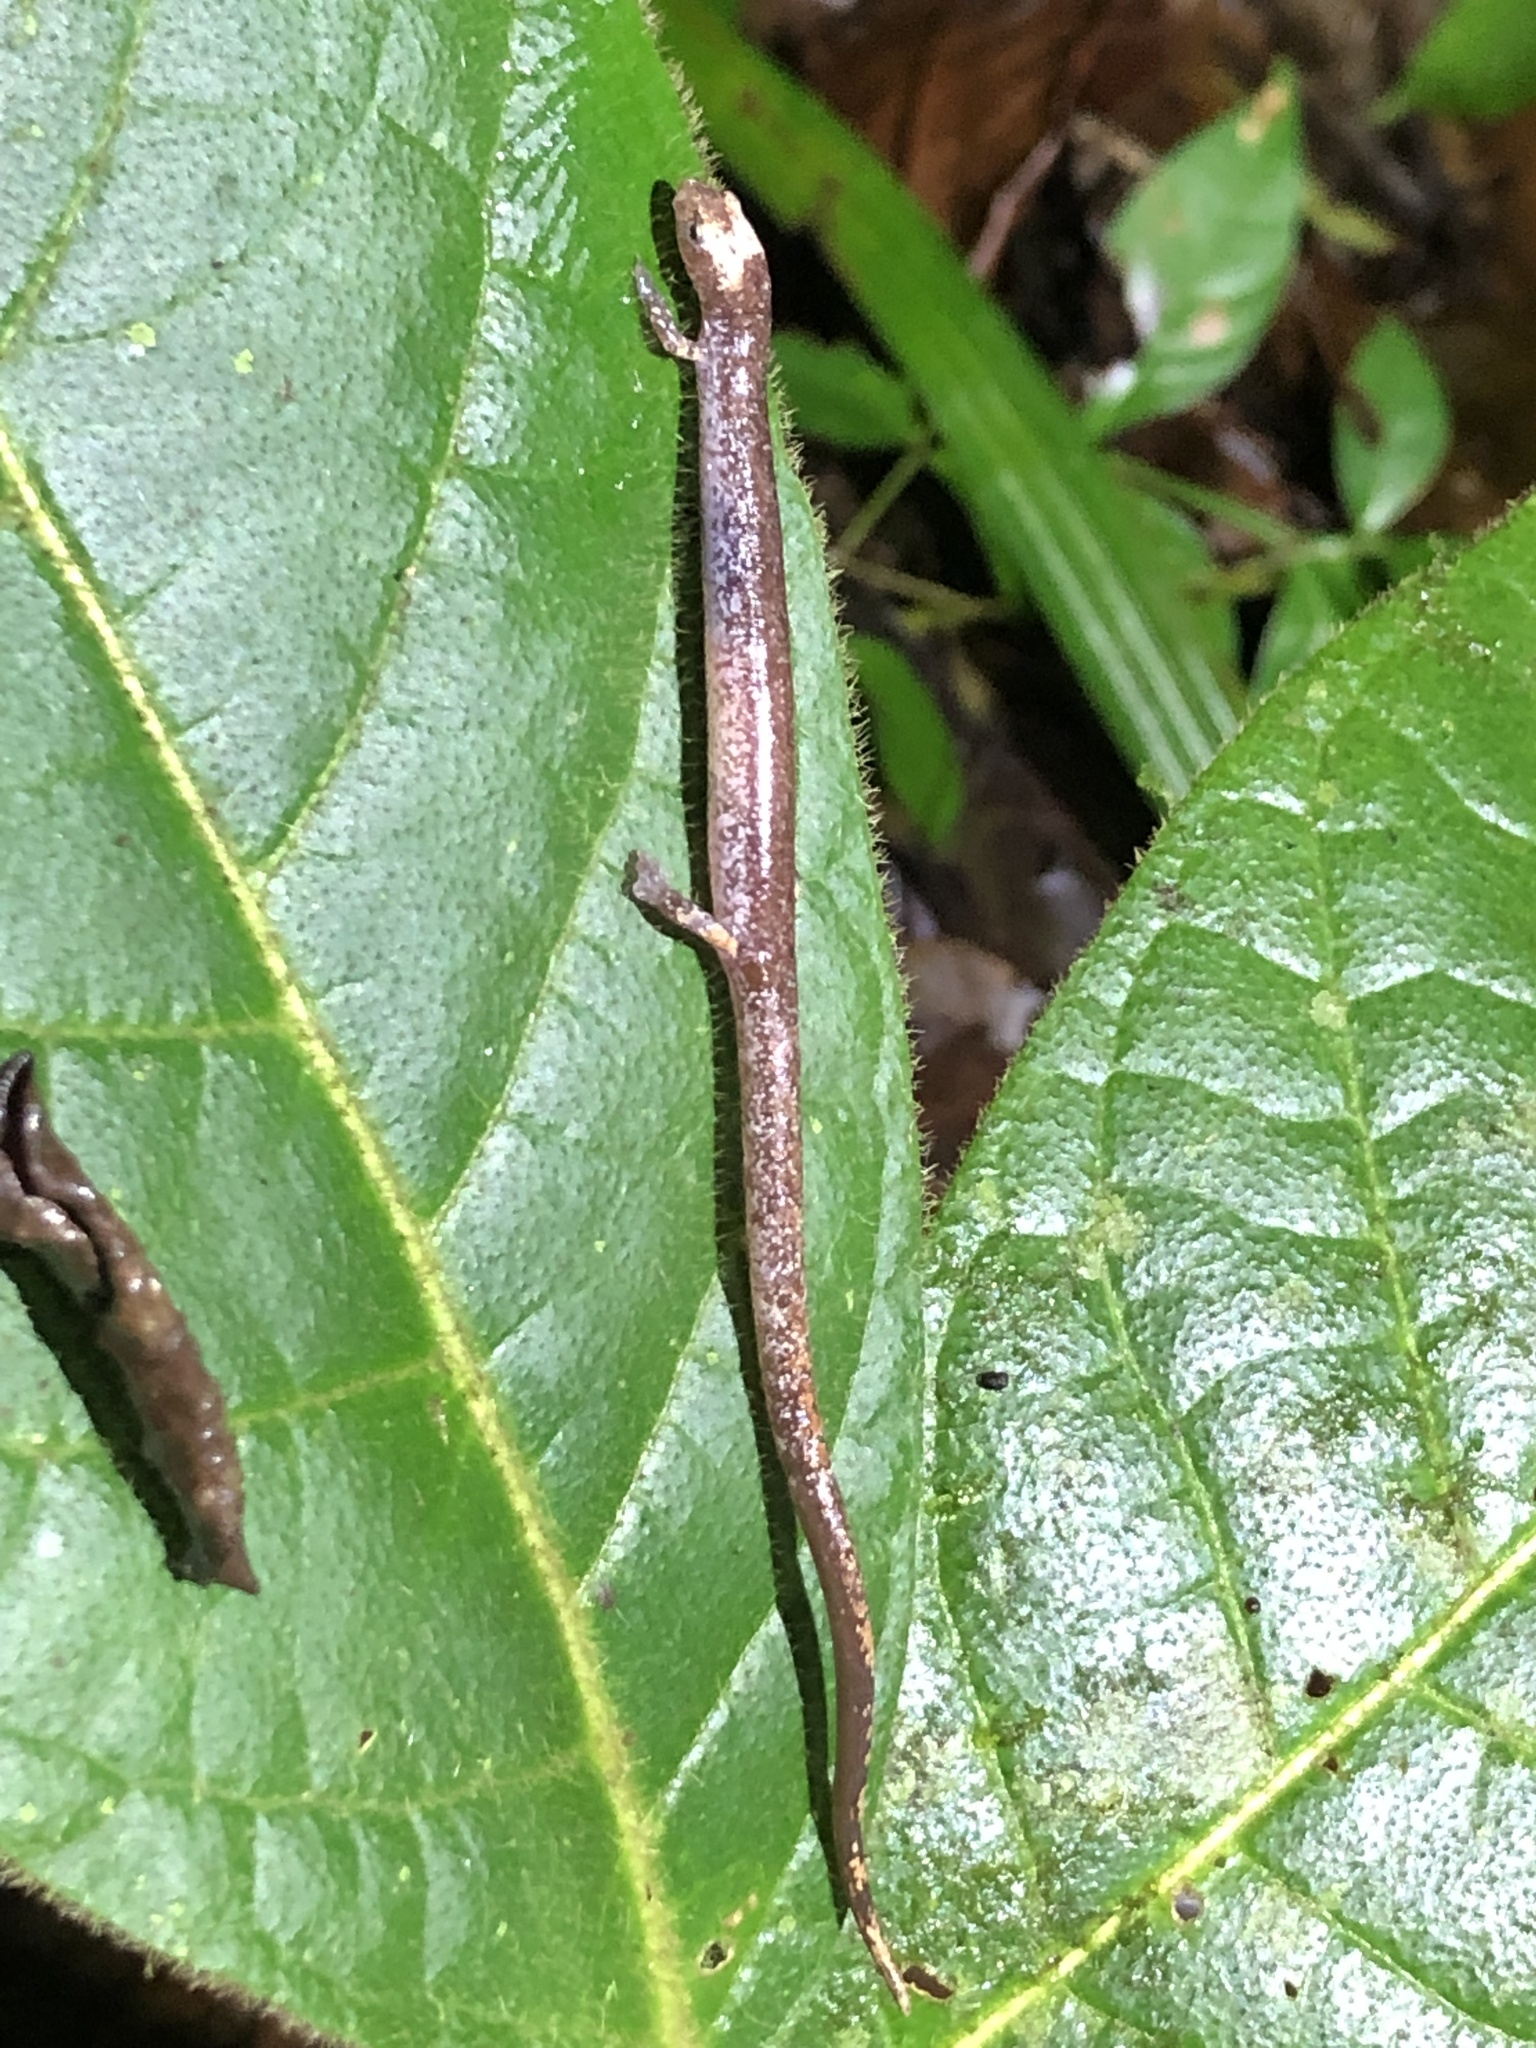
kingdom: Animalia
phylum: Chordata
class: Amphibia
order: Caudata
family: Plethodontidae
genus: Oedipina
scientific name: Oedipina alleni
